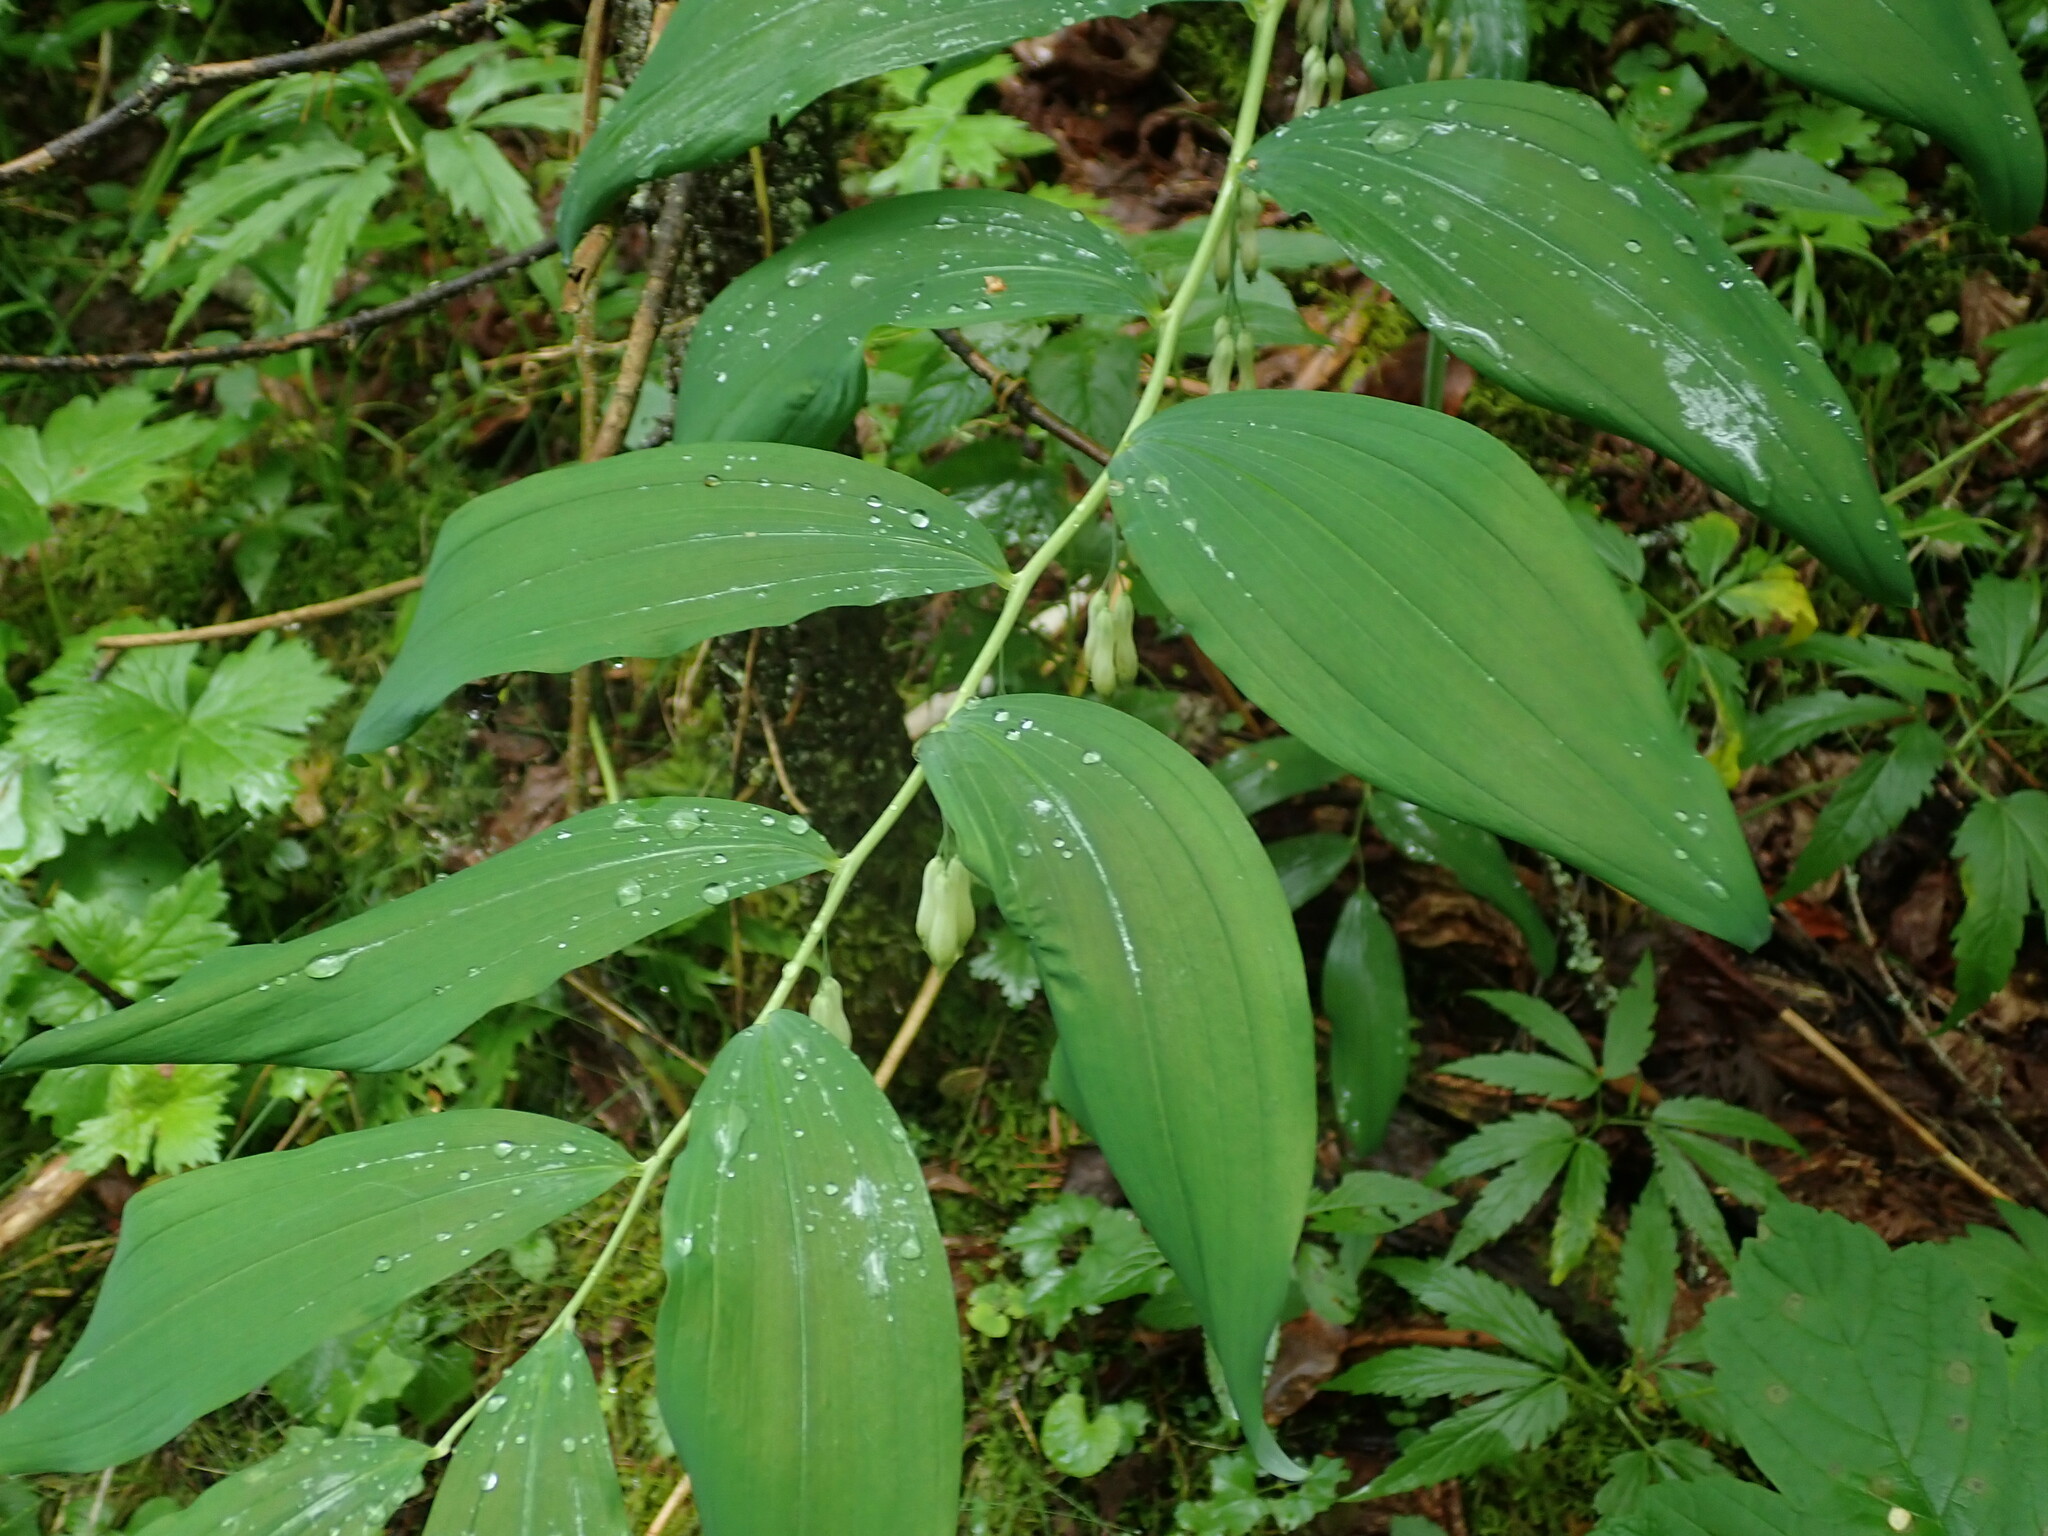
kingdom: Plantae
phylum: Tracheophyta
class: Liliopsida
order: Asparagales
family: Asparagaceae
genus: Polygonatum
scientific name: Polygonatum multiflorum
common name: Solomon's-seal
